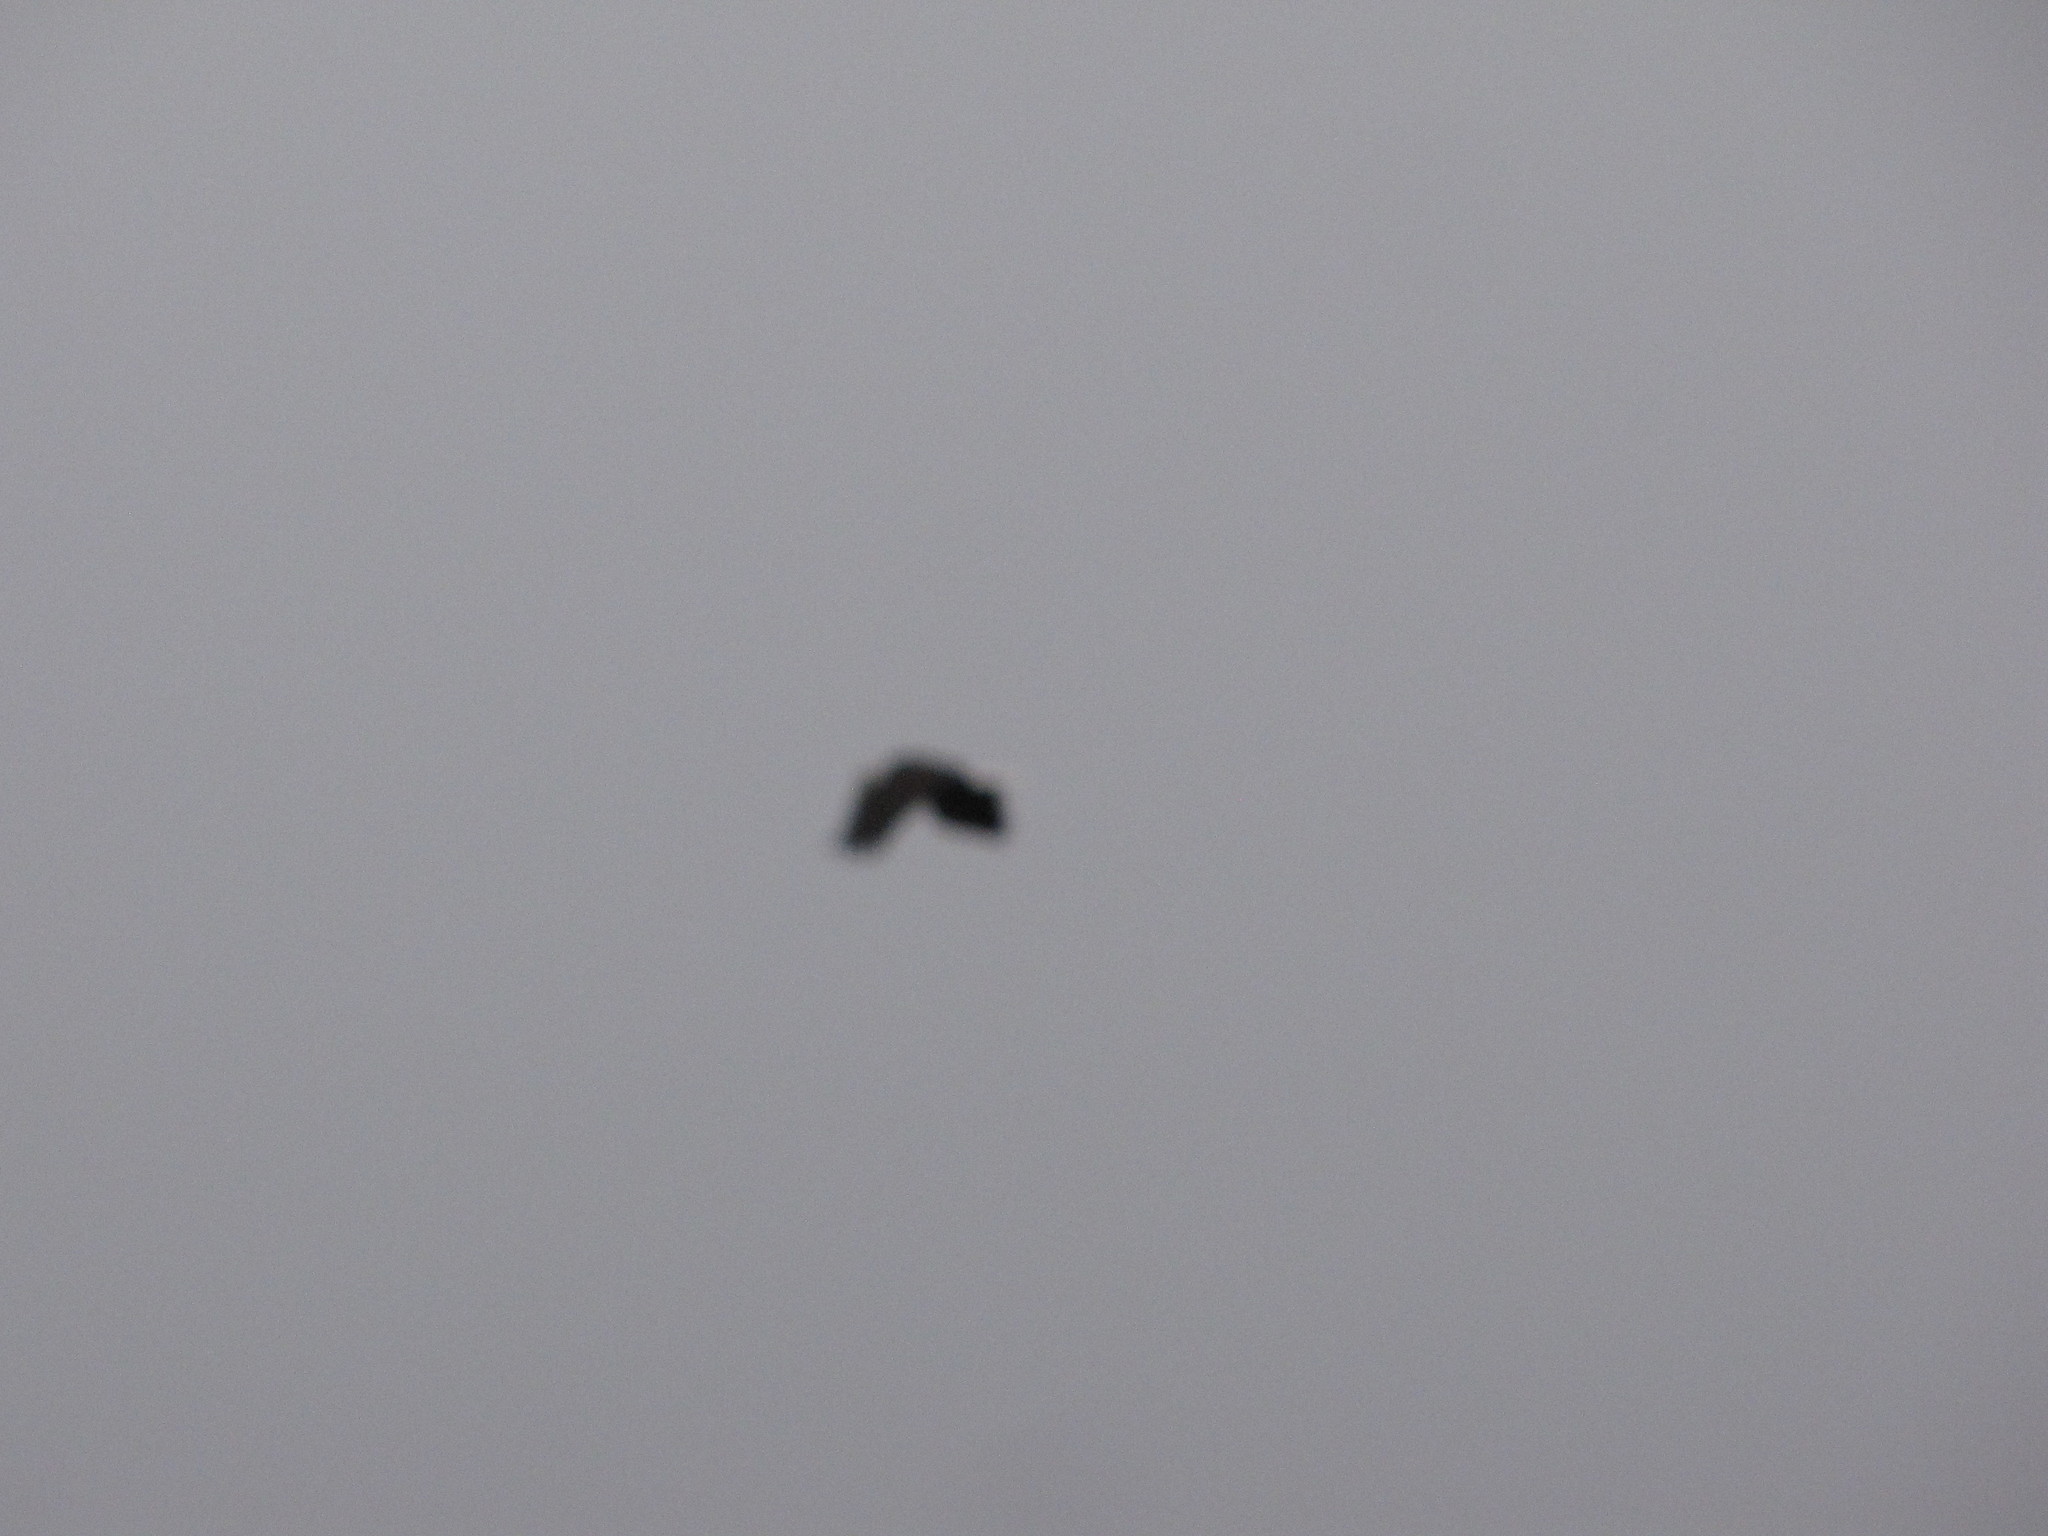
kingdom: Animalia
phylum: Chordata
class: Aves
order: Accipitriformes
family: Accipitridae
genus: Haliaeetus
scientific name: Haliaeetus leucocephalus
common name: Bald eagle
